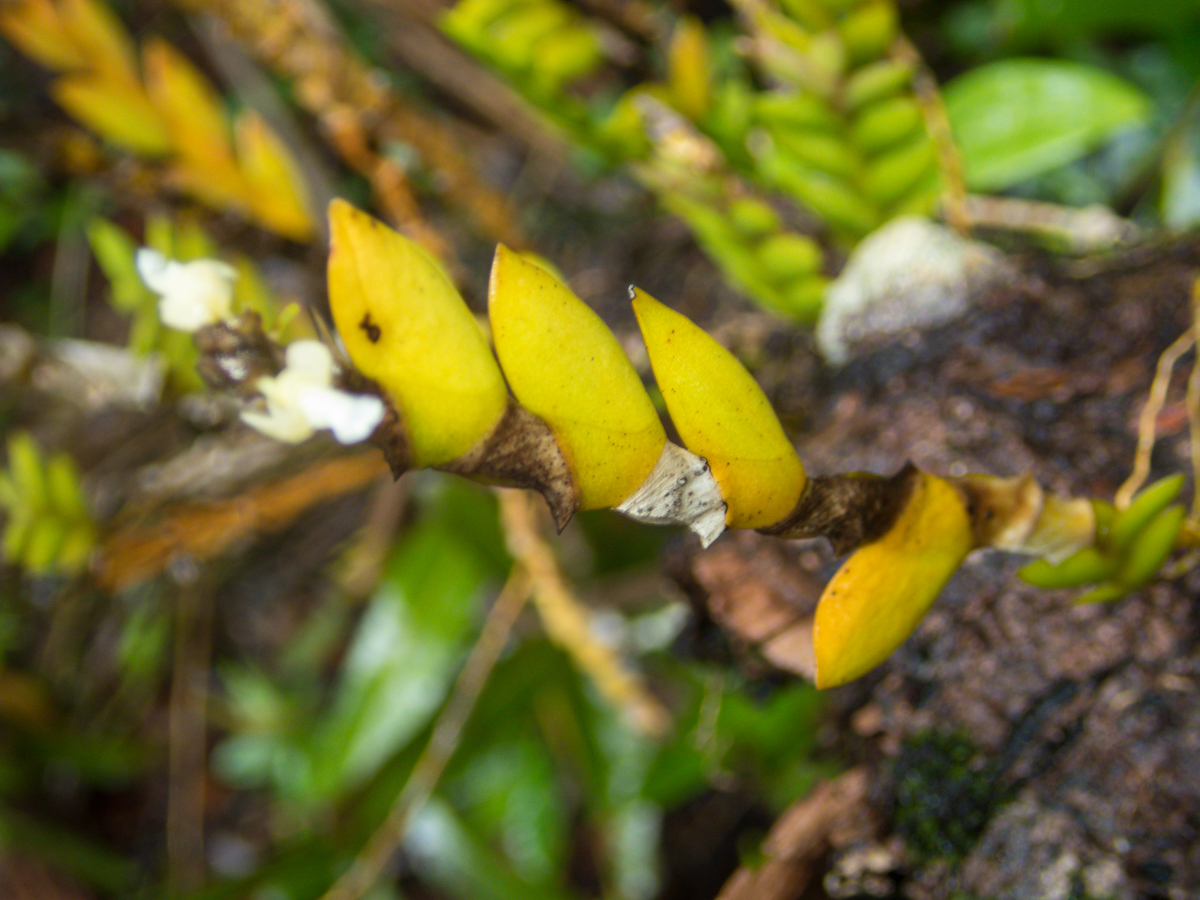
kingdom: Plantae
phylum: Tracheophyta
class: Liliopsida
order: Asparagales
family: Orchidaceae
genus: Dendrobium
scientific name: Dendrobium aloifolium
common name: Aloe-like dendrobium
